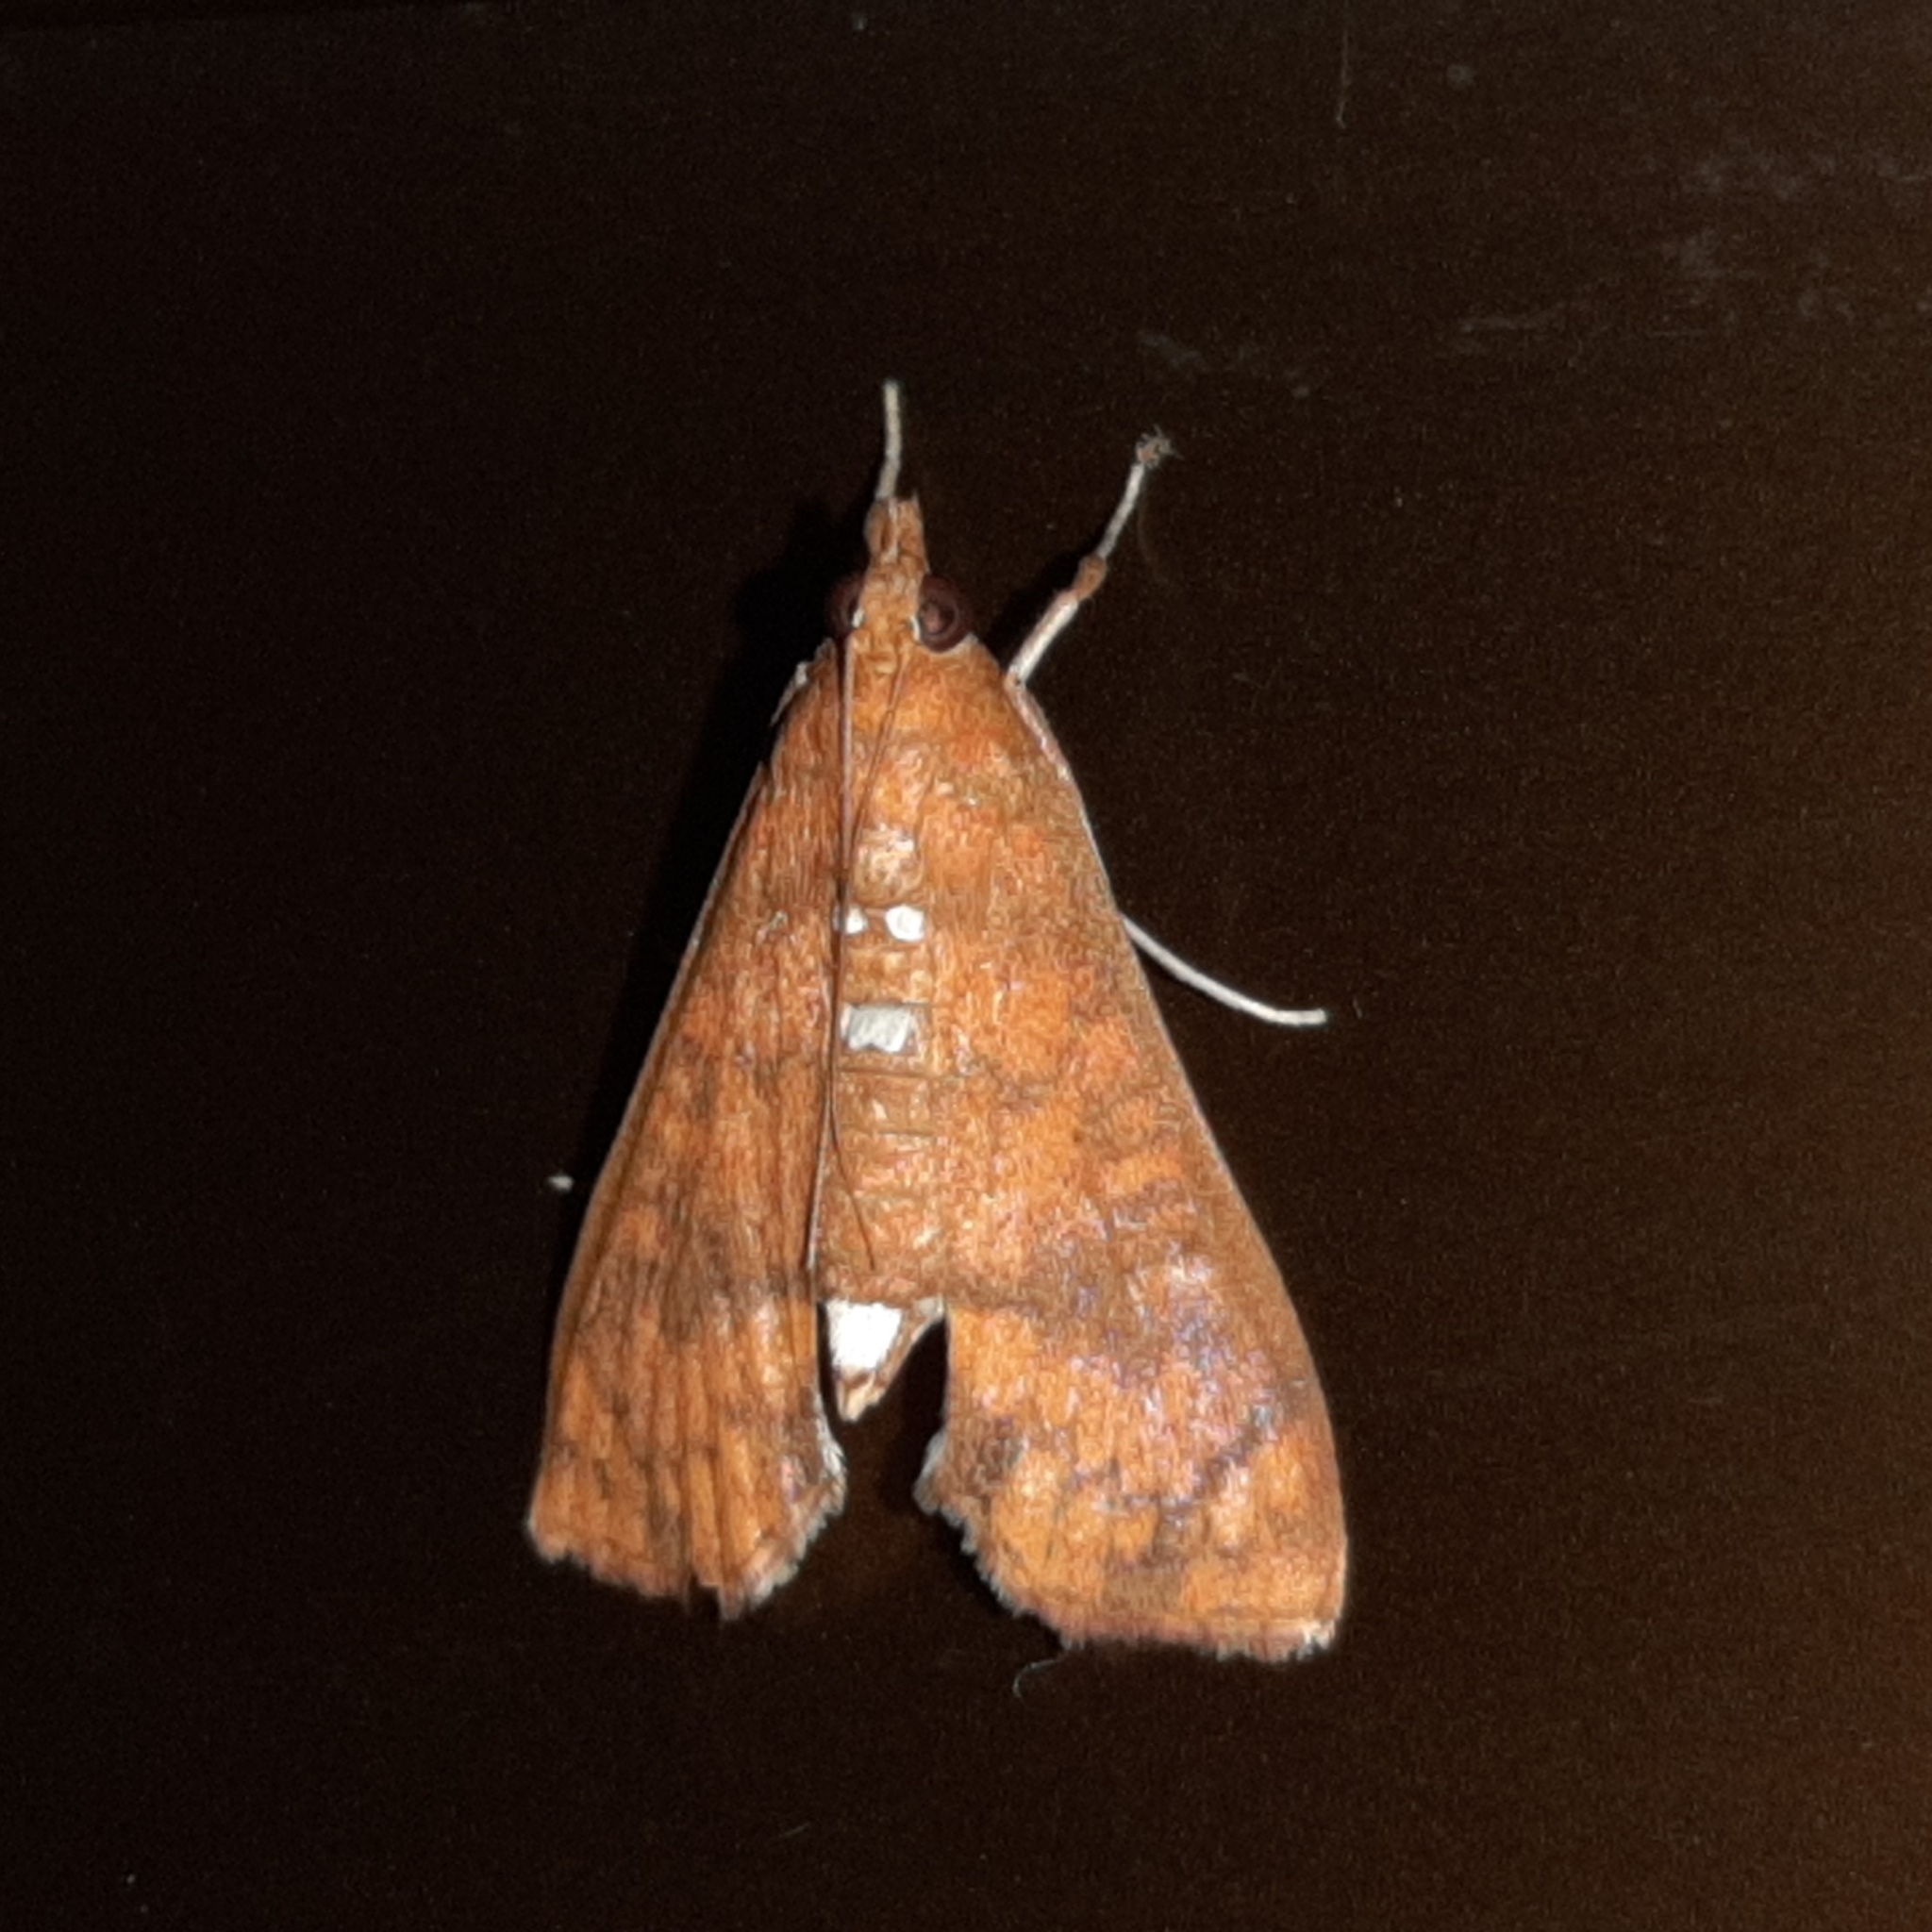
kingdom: Animalia
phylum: Arthropoda
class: Insecta
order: Lepidoptera
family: Crambidae
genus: Liopasia
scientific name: Liopasia ochracealis
